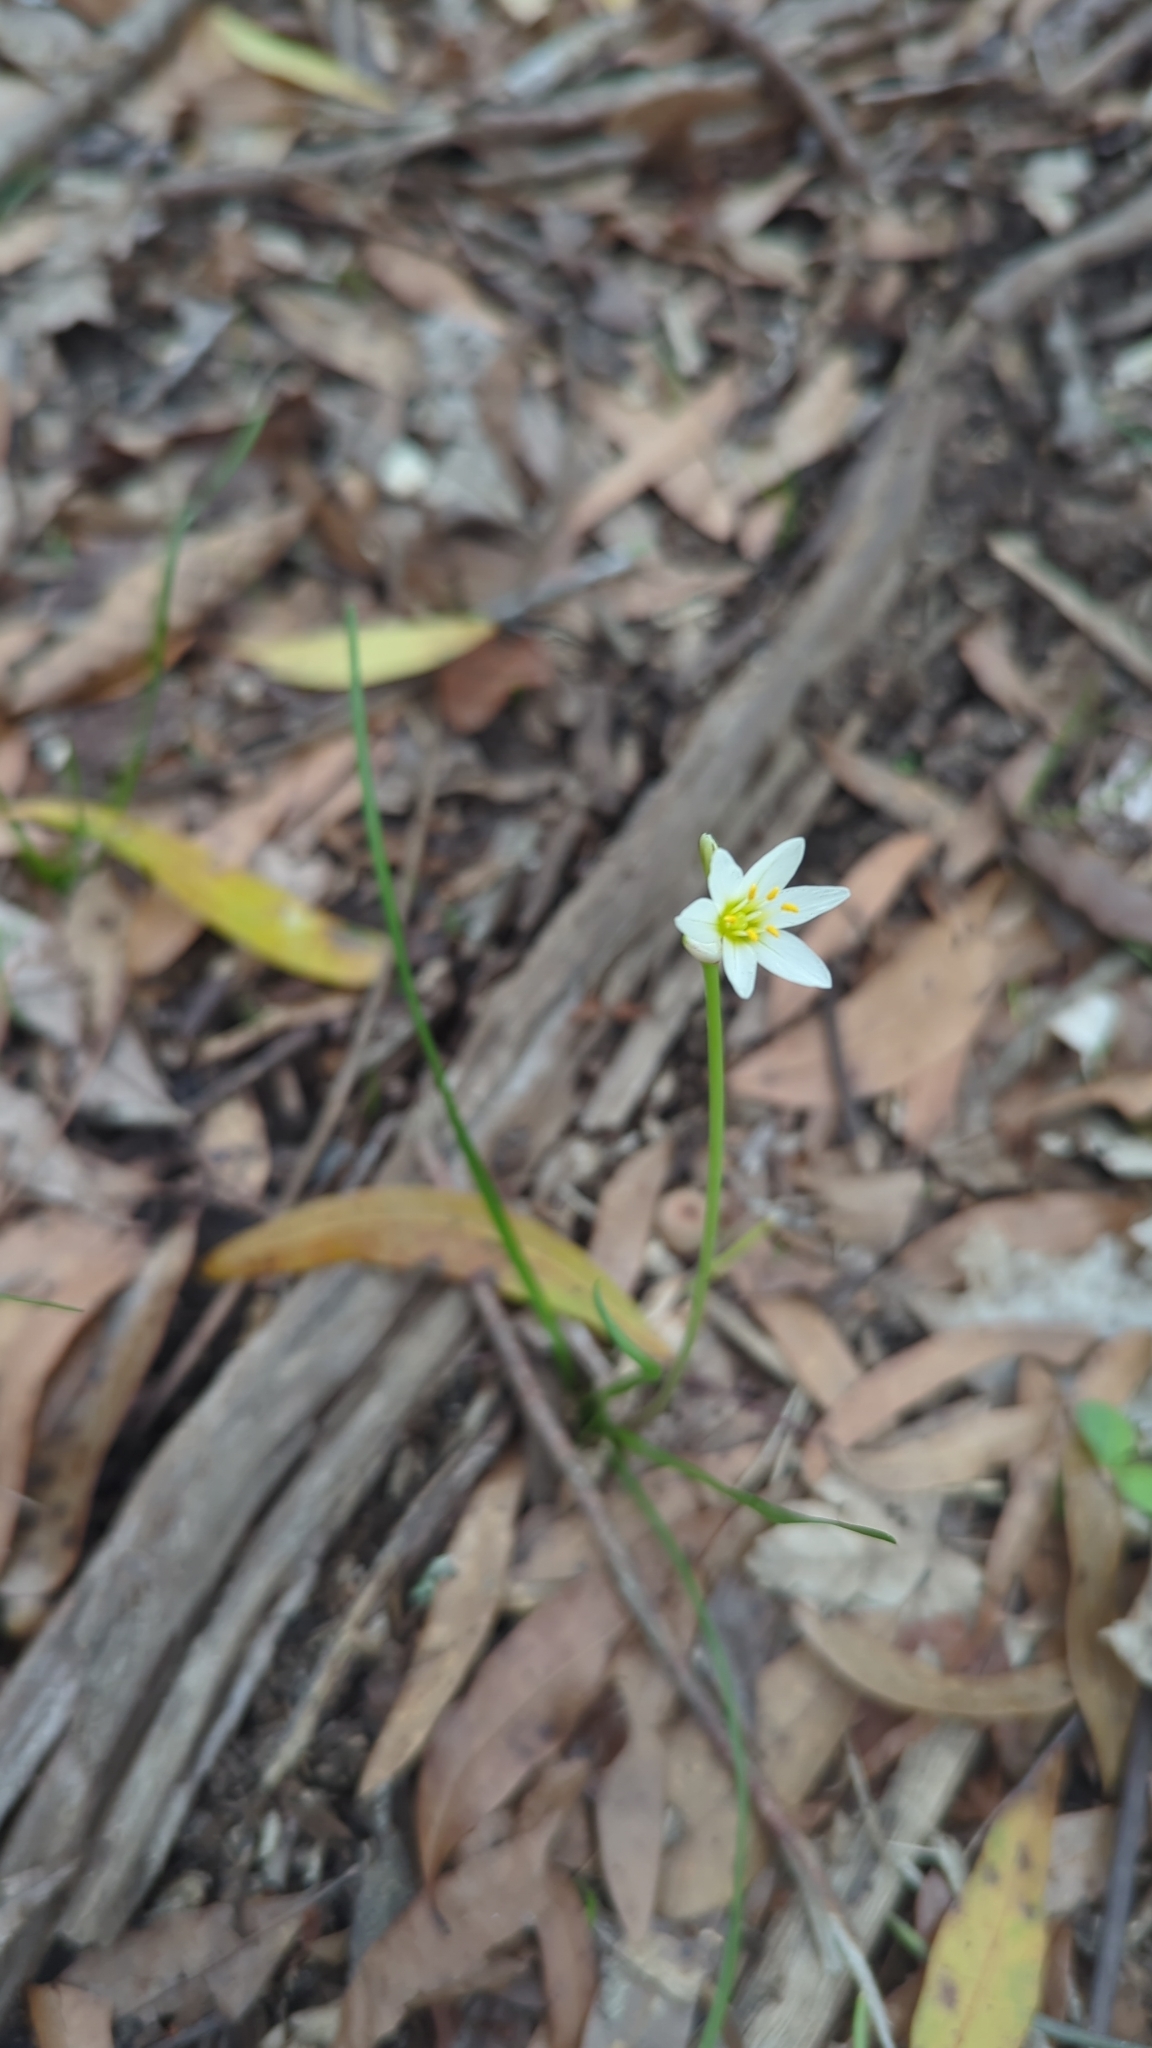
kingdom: Plantae
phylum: Tracheophyta
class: Liliopsida
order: Asparagales
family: Amaryllidaceae
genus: Nothoscordum
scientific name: Nothoscordum bivalve
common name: Crow-poison
